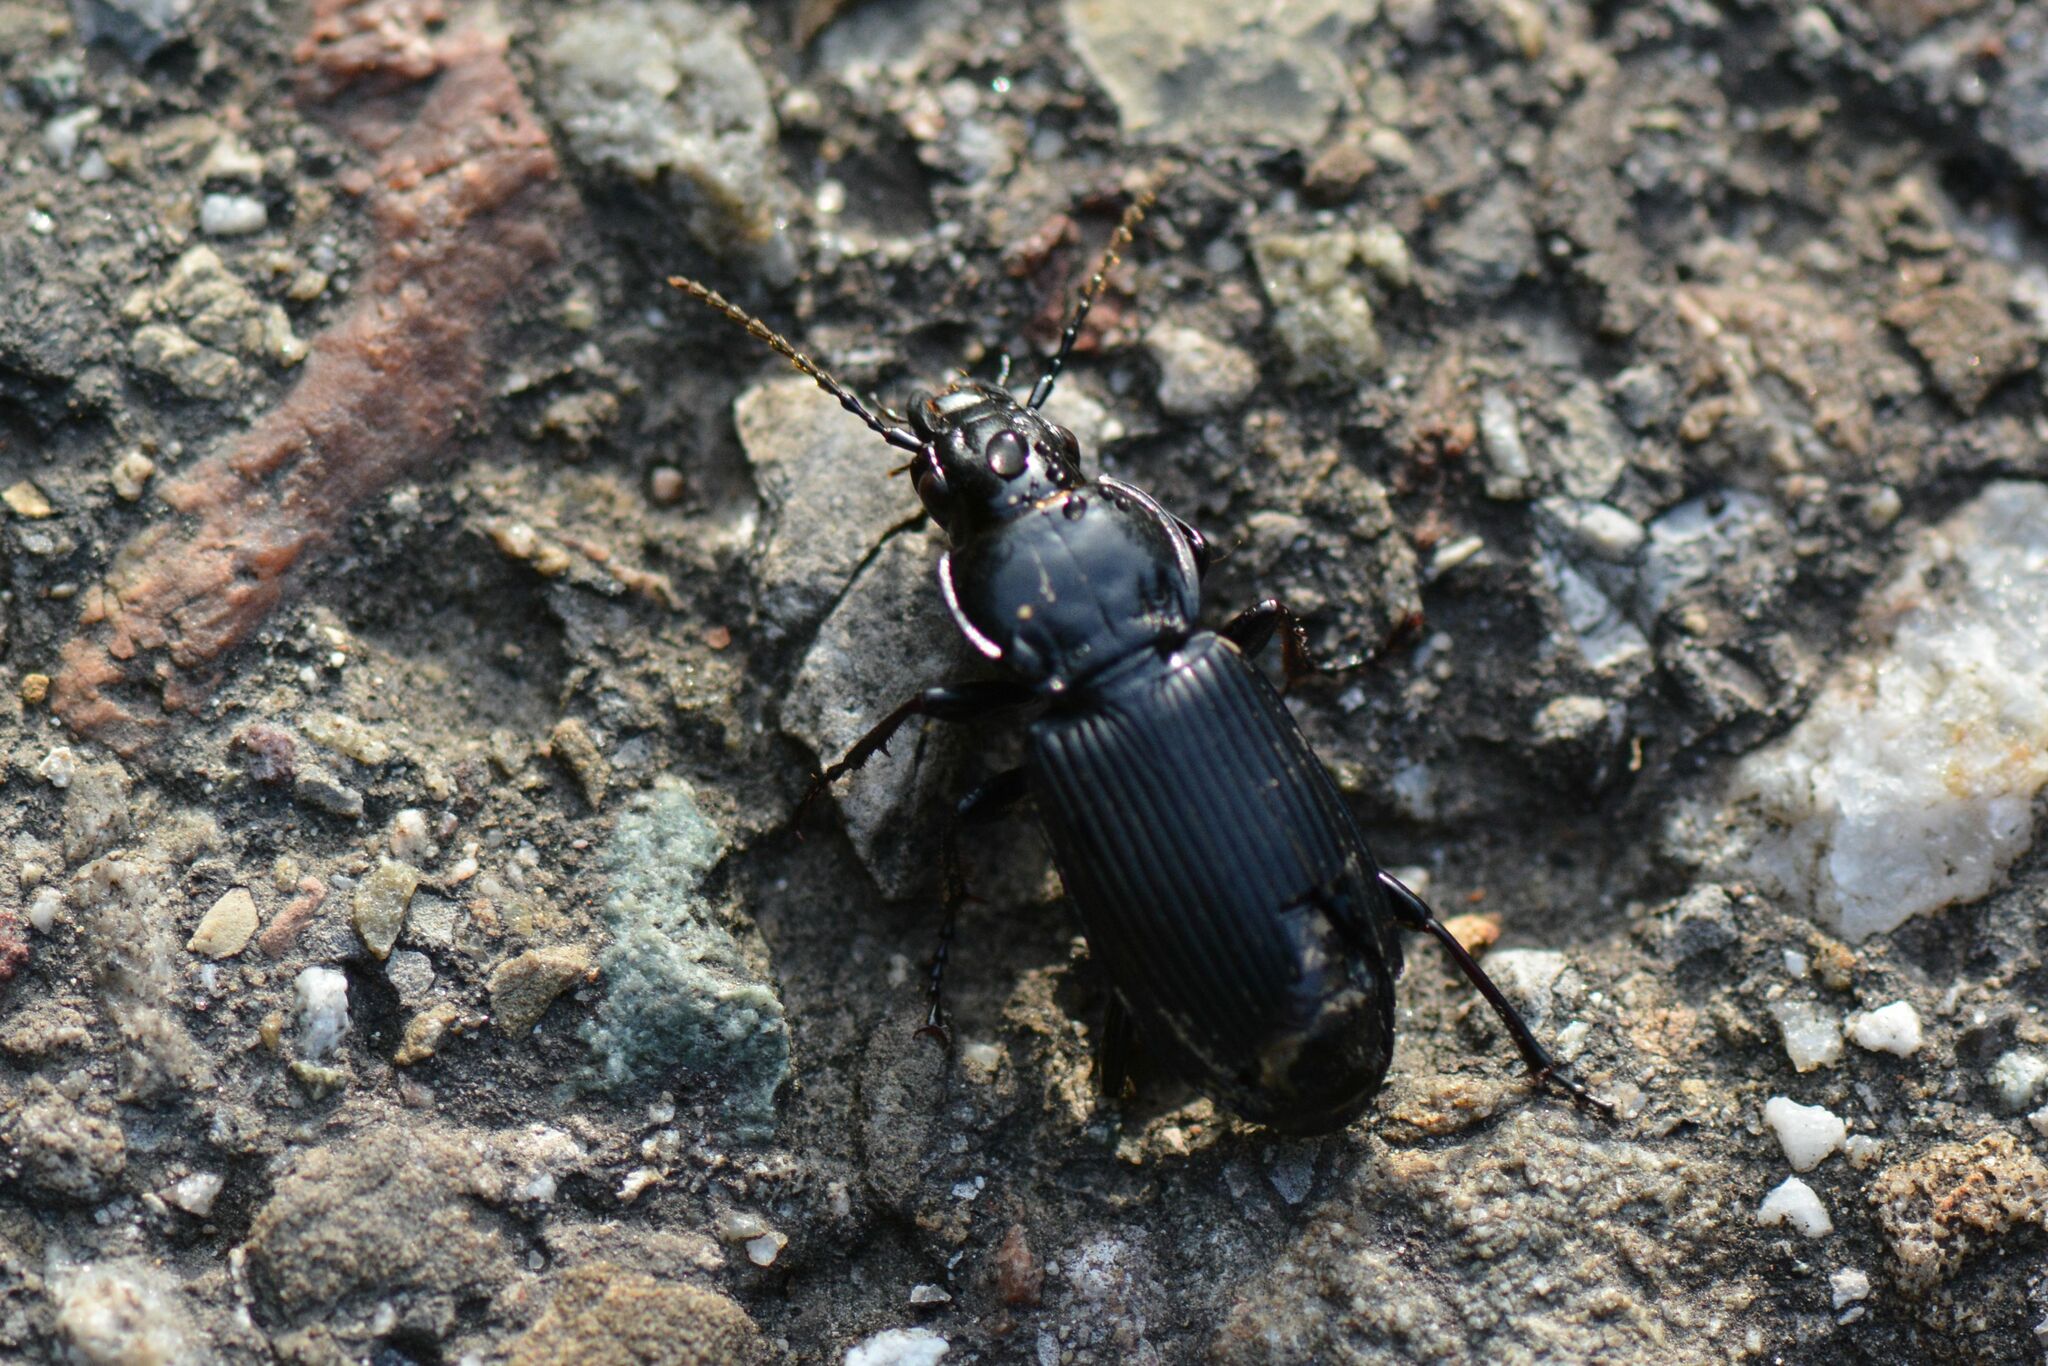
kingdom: Animalia
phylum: Arthropoda
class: Insecta
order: Coleoptera
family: Carabidae
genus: Pterostichus
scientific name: Pterostichus melanarius
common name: European dark harp ground beetle
